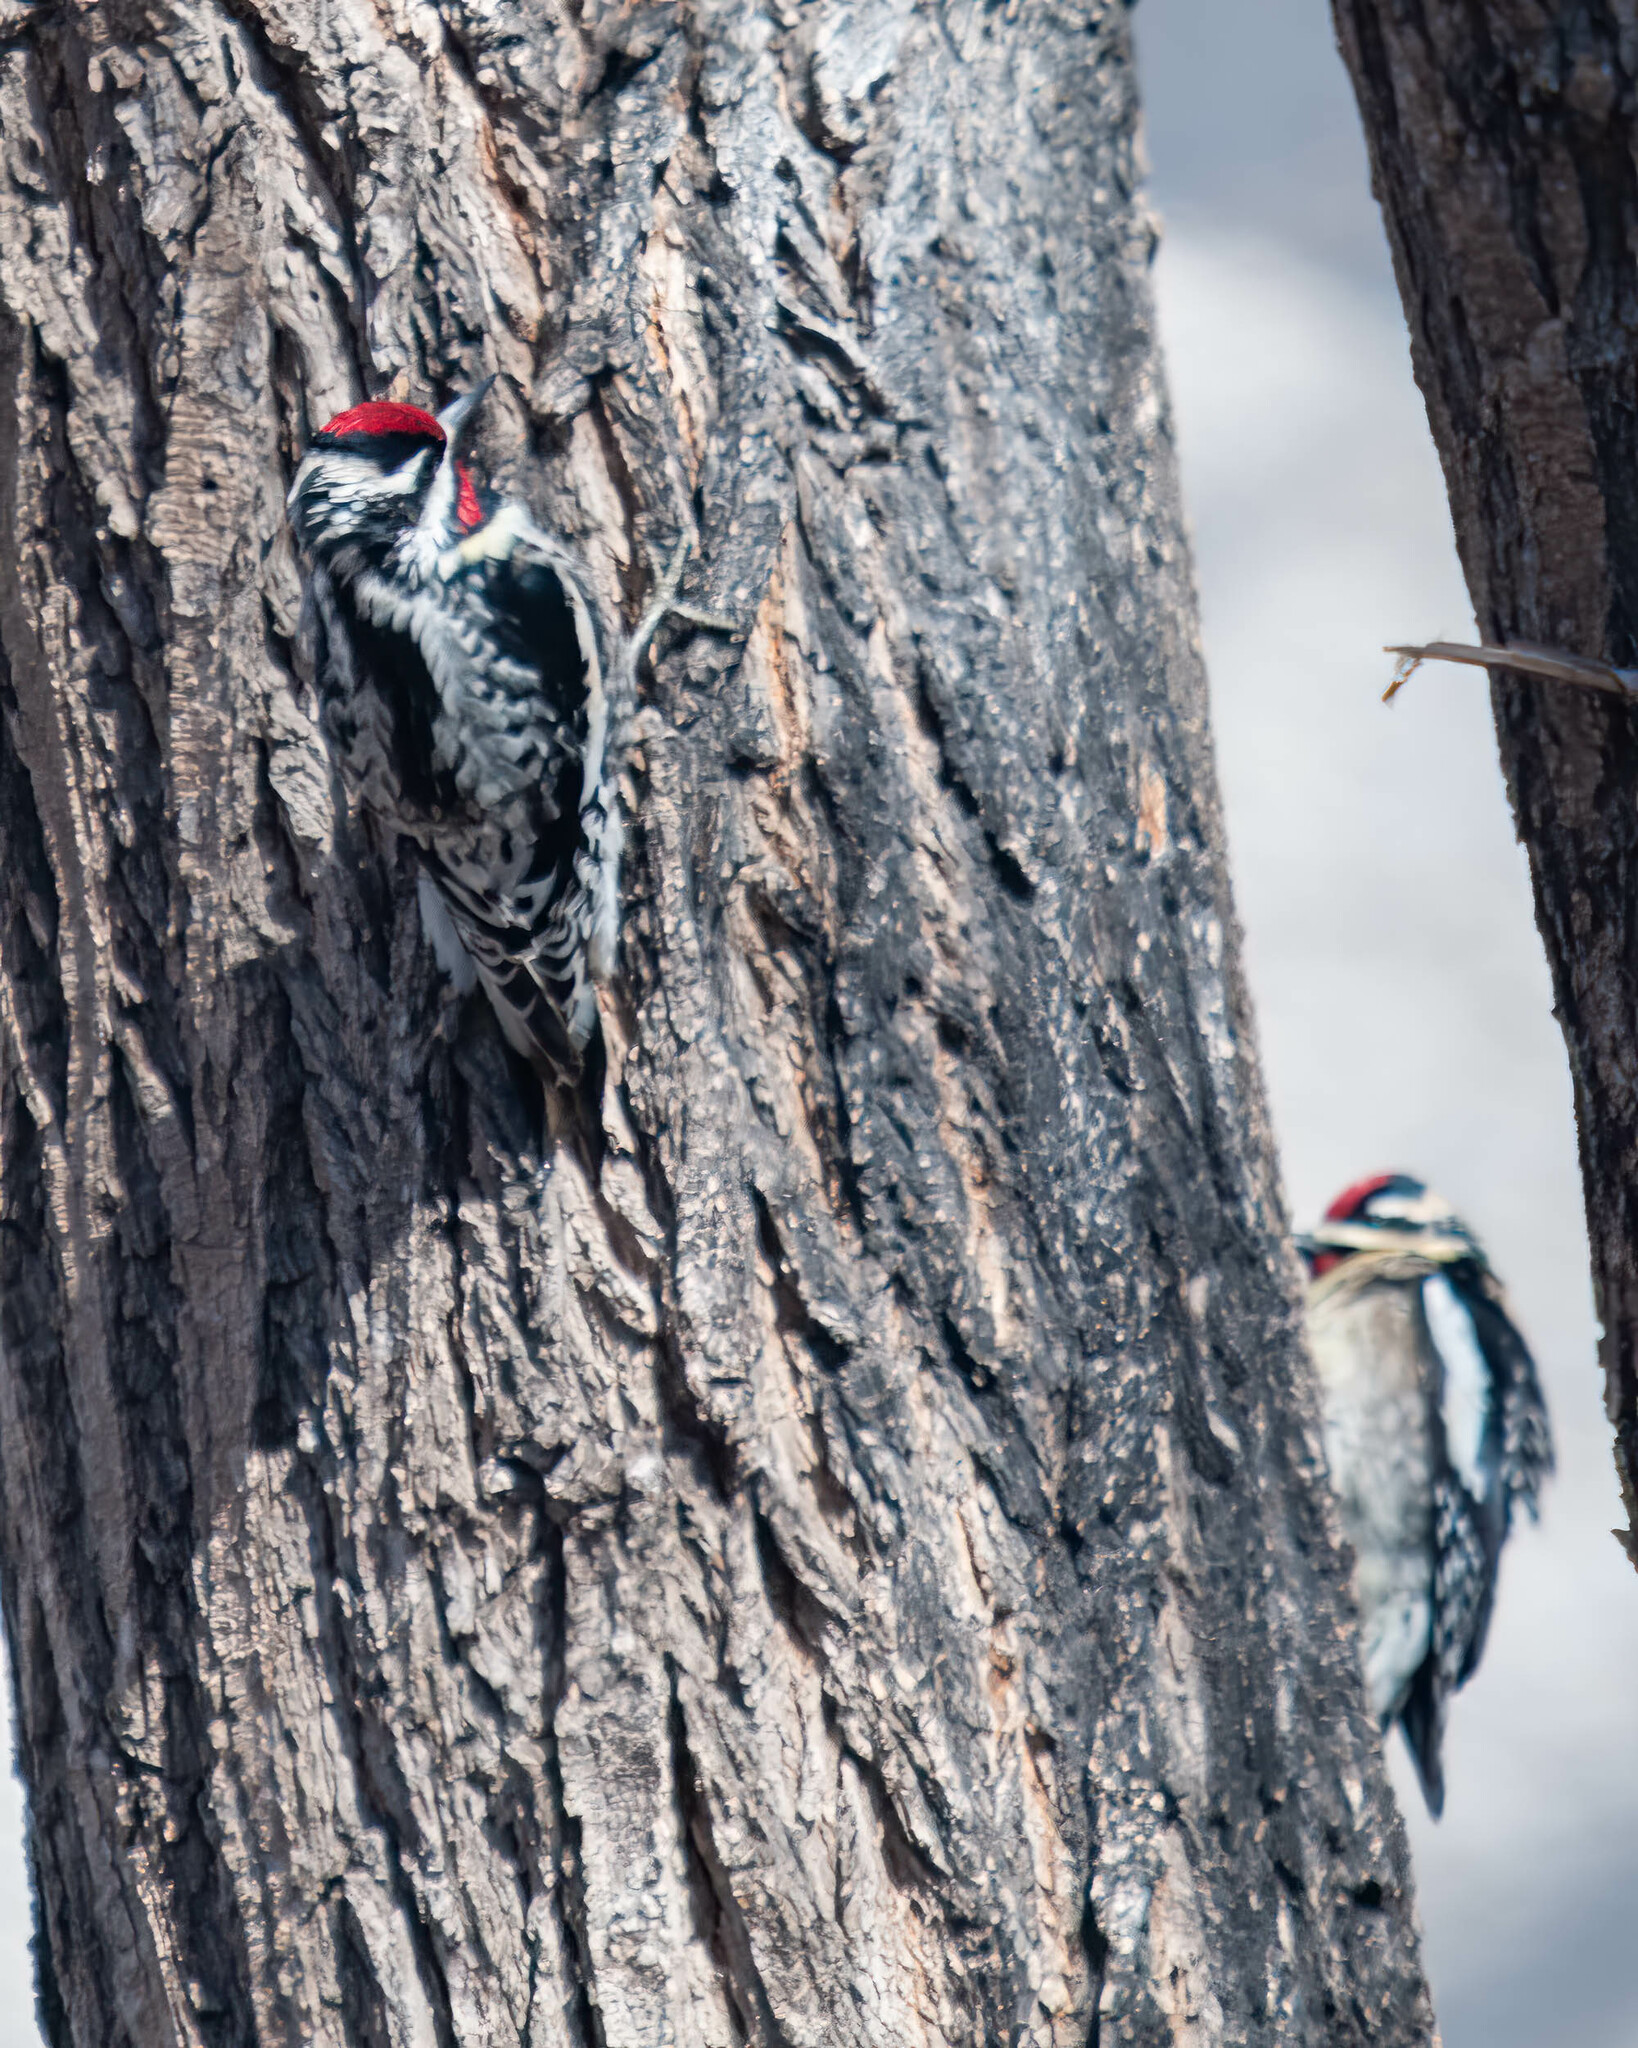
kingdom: Animalia
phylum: Chordata
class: Aves
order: Piciformes
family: Picidae
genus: Sphyrapicus
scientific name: Sphyrapicus varius
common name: Yellow-bellied sapsucker
